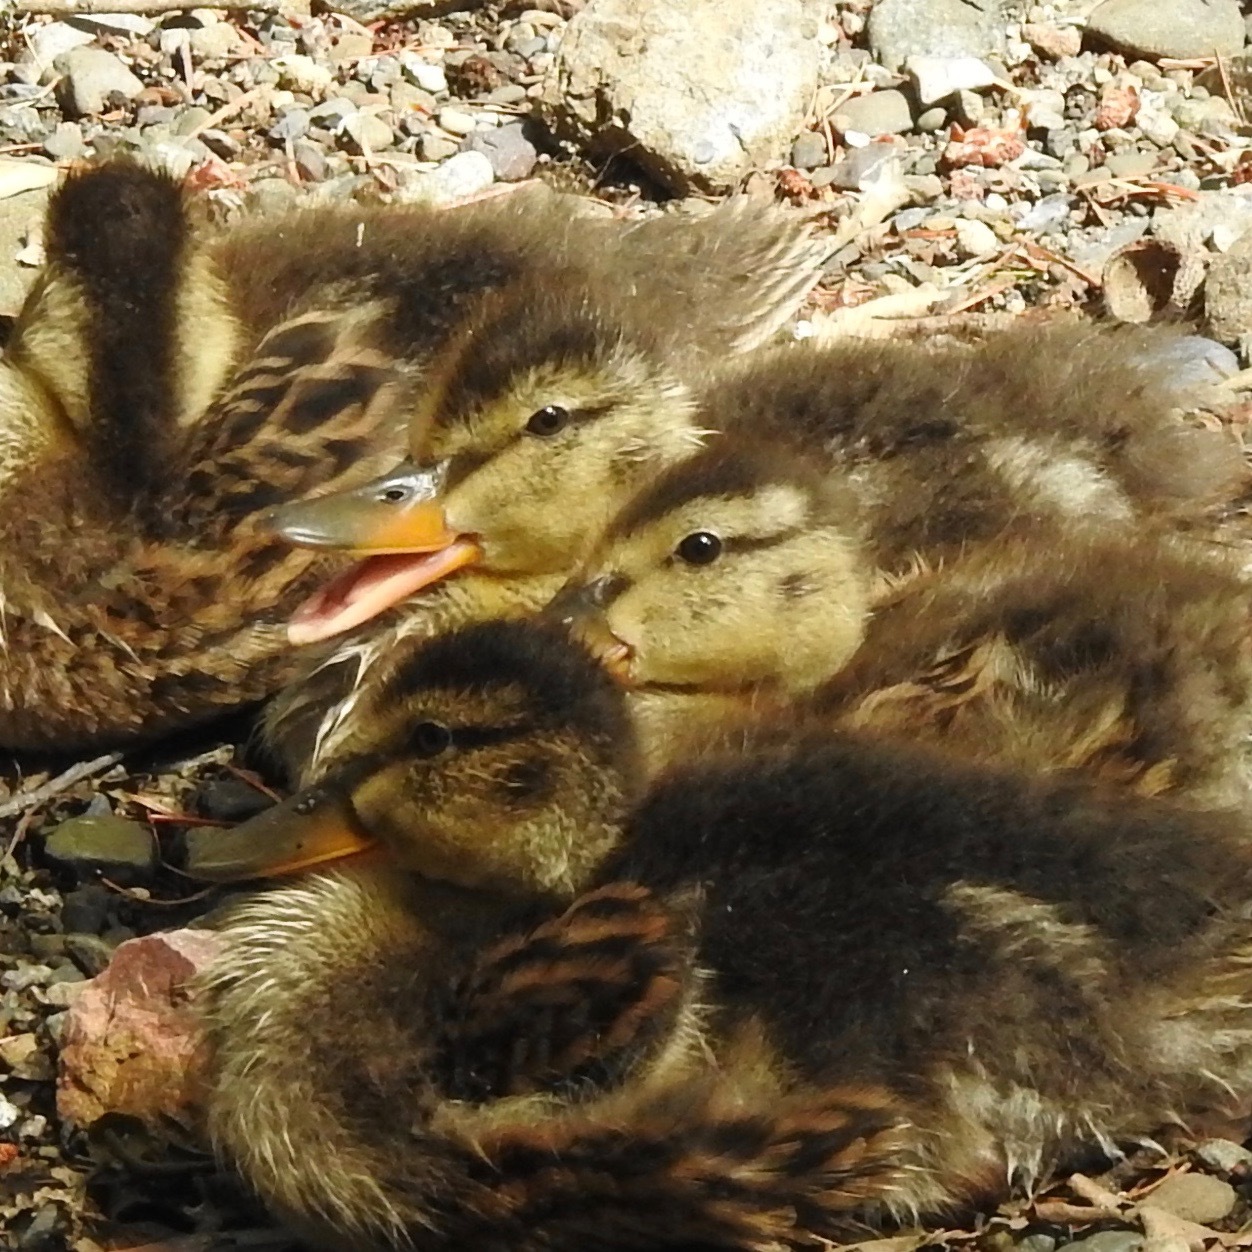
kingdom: Animalia
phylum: Chordata
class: Aves
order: Anseriformes
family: Anatidae
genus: Anas
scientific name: Anas platyrhynchos
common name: Mallard
